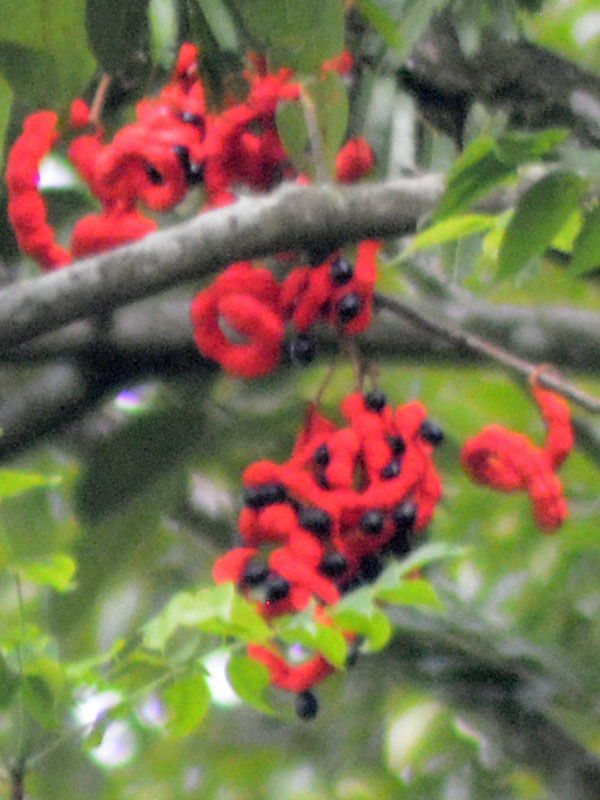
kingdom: Plantae
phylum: Tracheophyta
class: Magnoliopsida
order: Fabales
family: Fabaceae
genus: Cojoba
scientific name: Cojoba arborea
